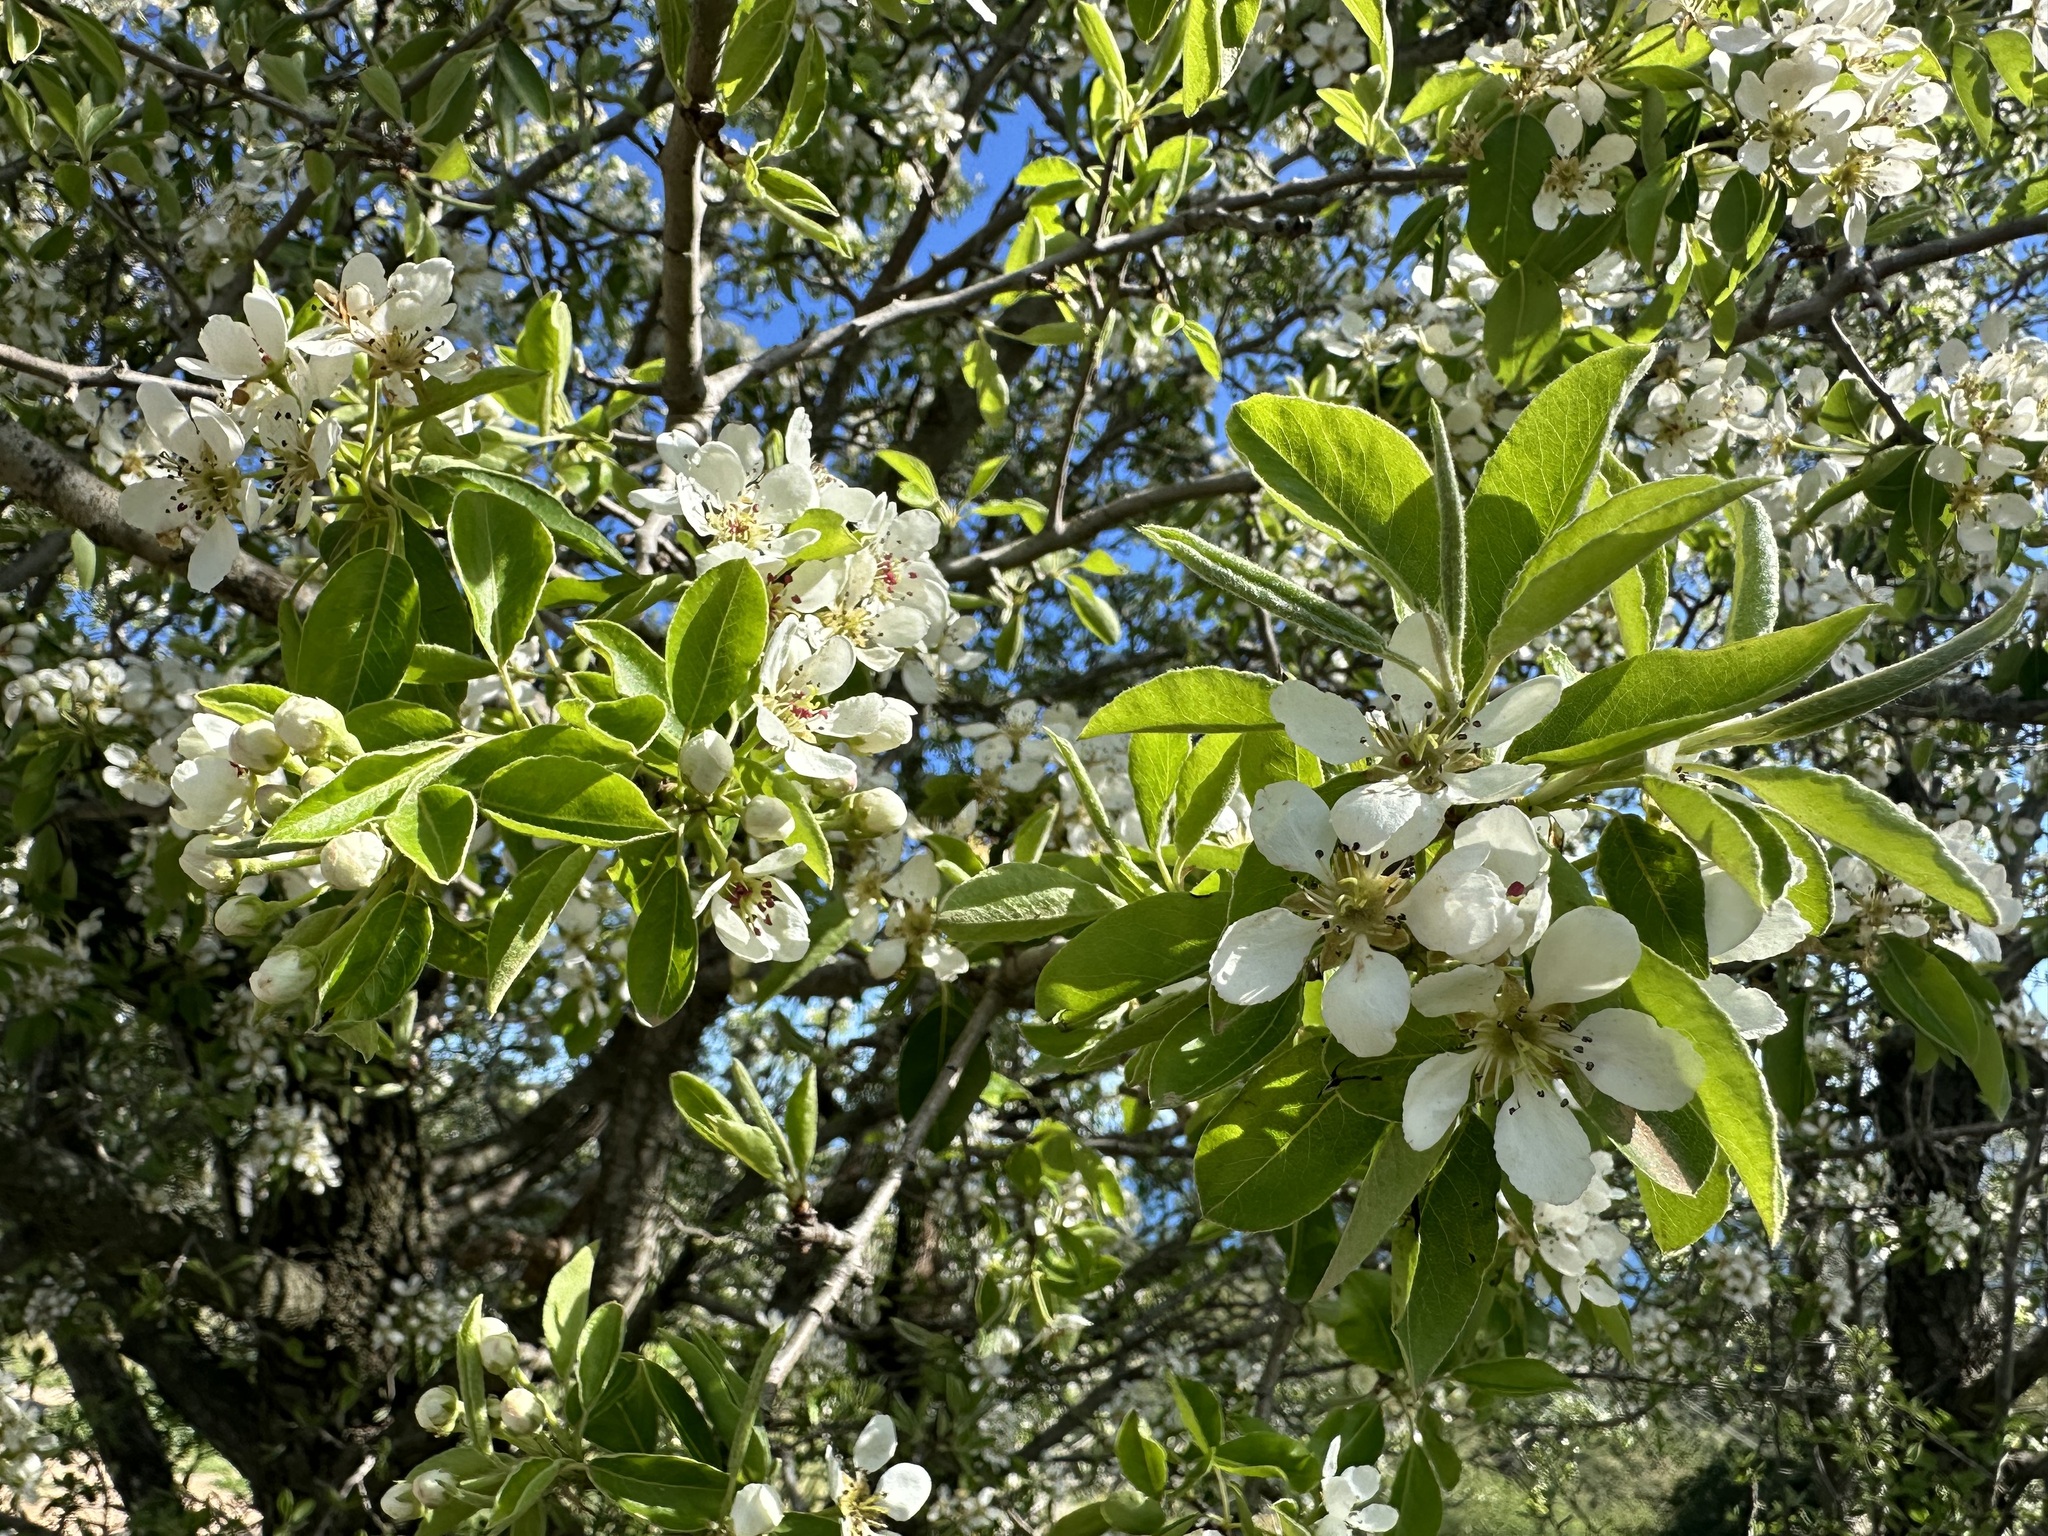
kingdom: Plantae
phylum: Tracheophyta
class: Magnoliopsida
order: Rosales
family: Rosaceae
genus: Pyrus
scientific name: Pyrus spinosa
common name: Almond-leaf pear
